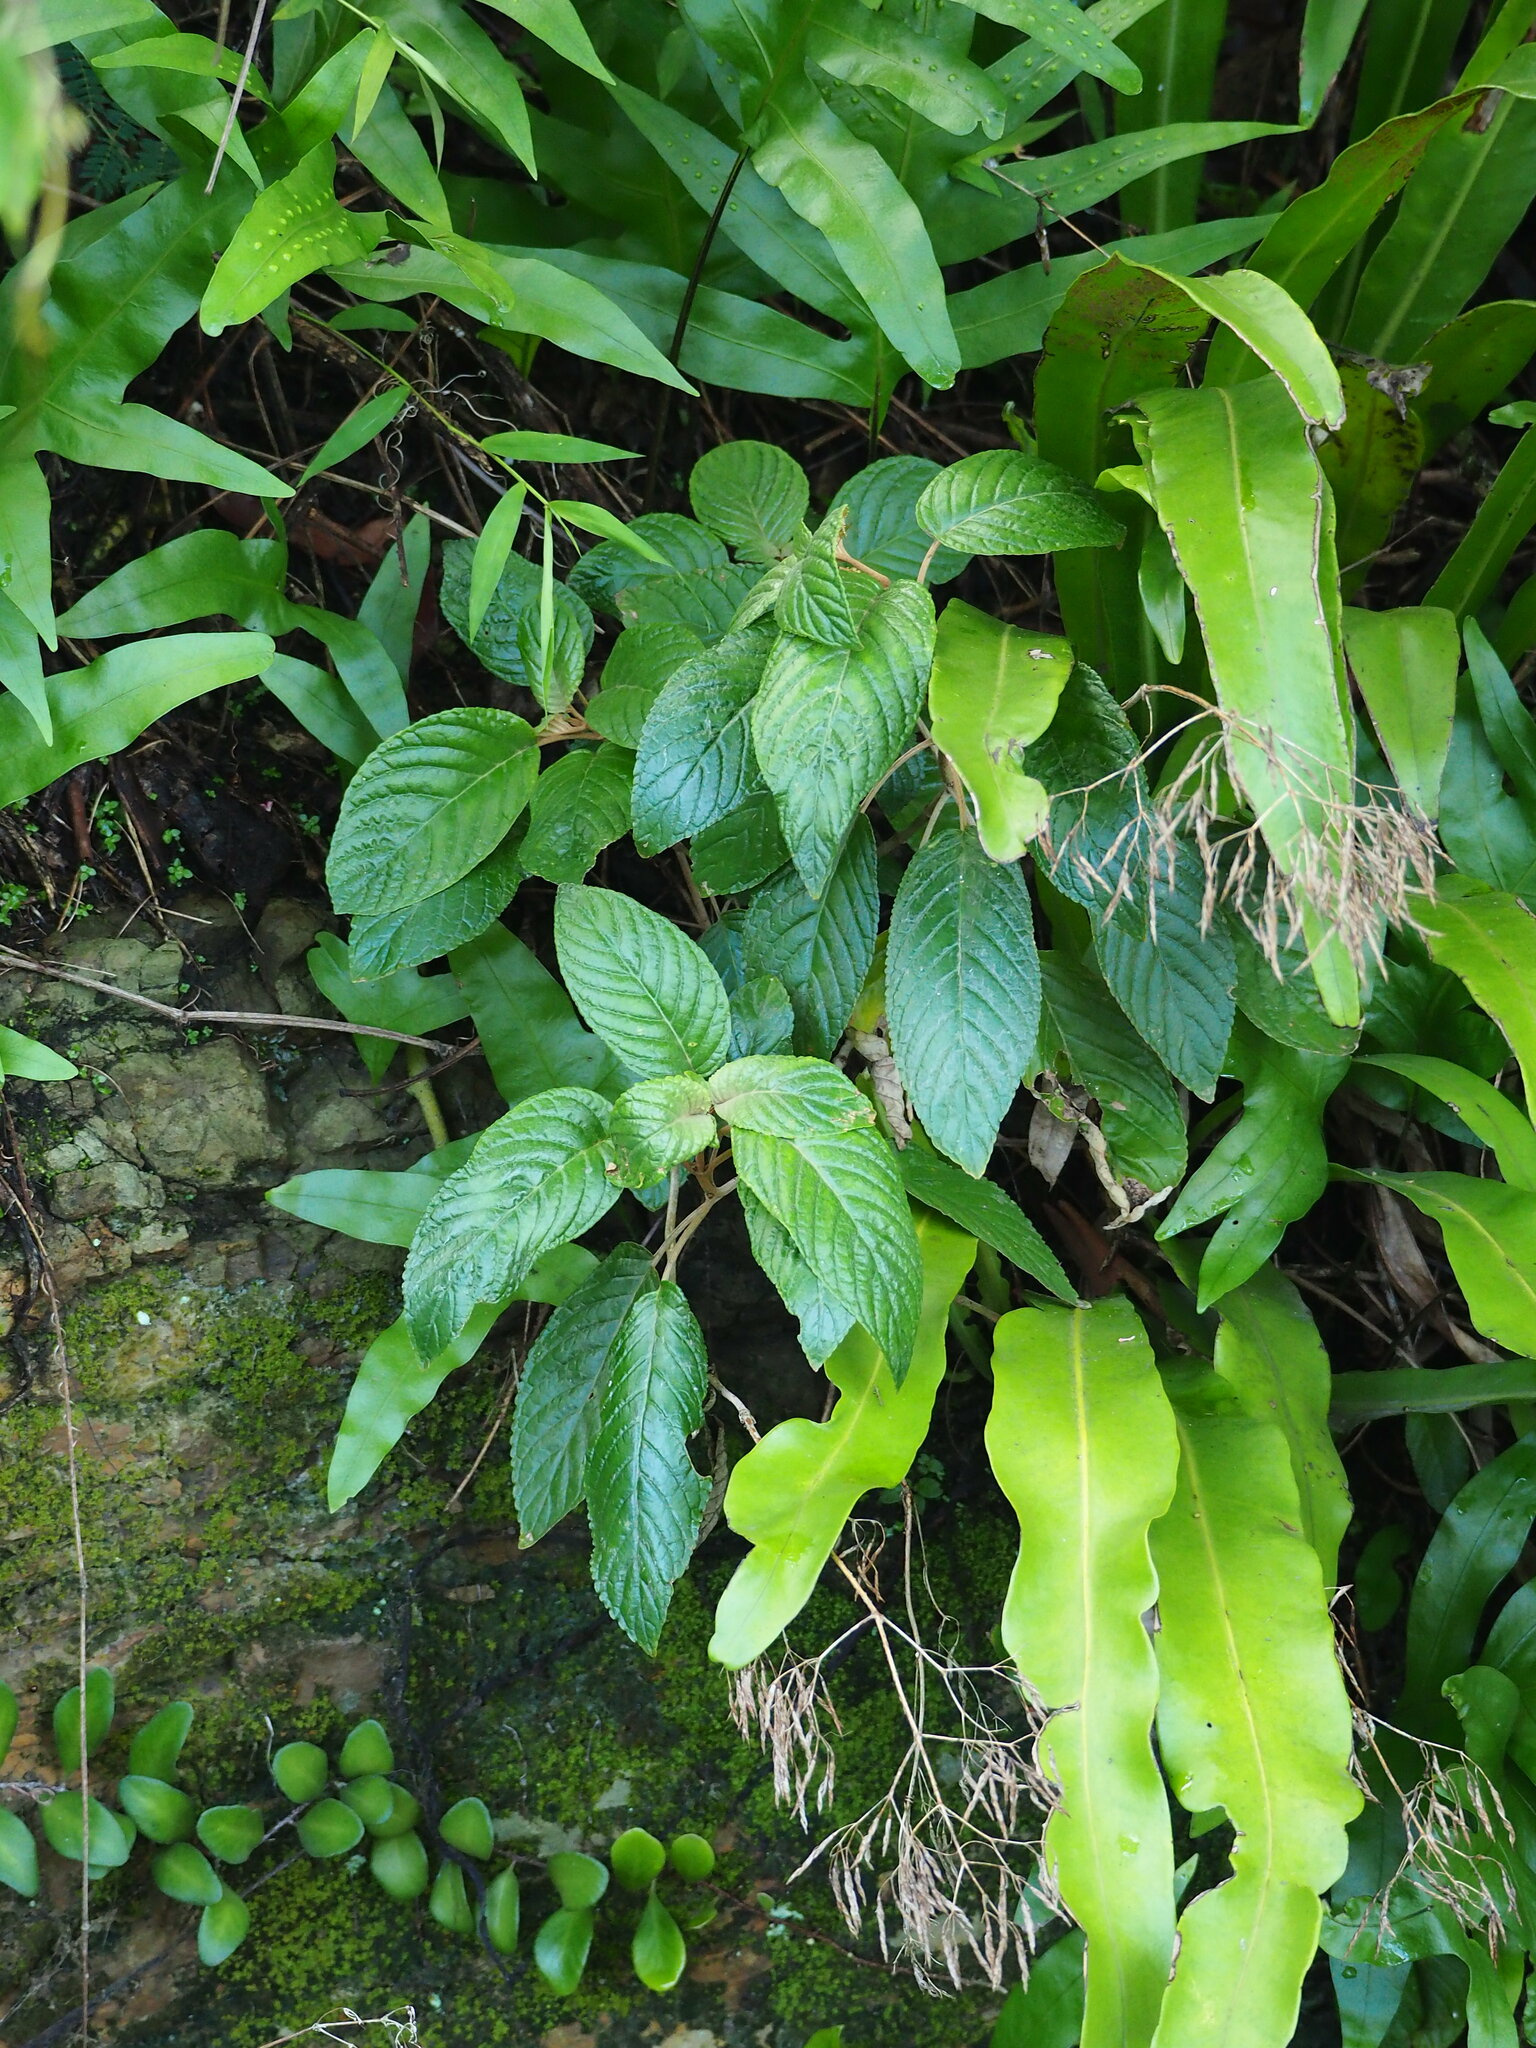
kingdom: Plantae
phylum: Tracheophyta
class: Magnoliopsida
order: Lamiales
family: Gesneriaceae
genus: Paraboea
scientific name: Paraboea swinhoei
